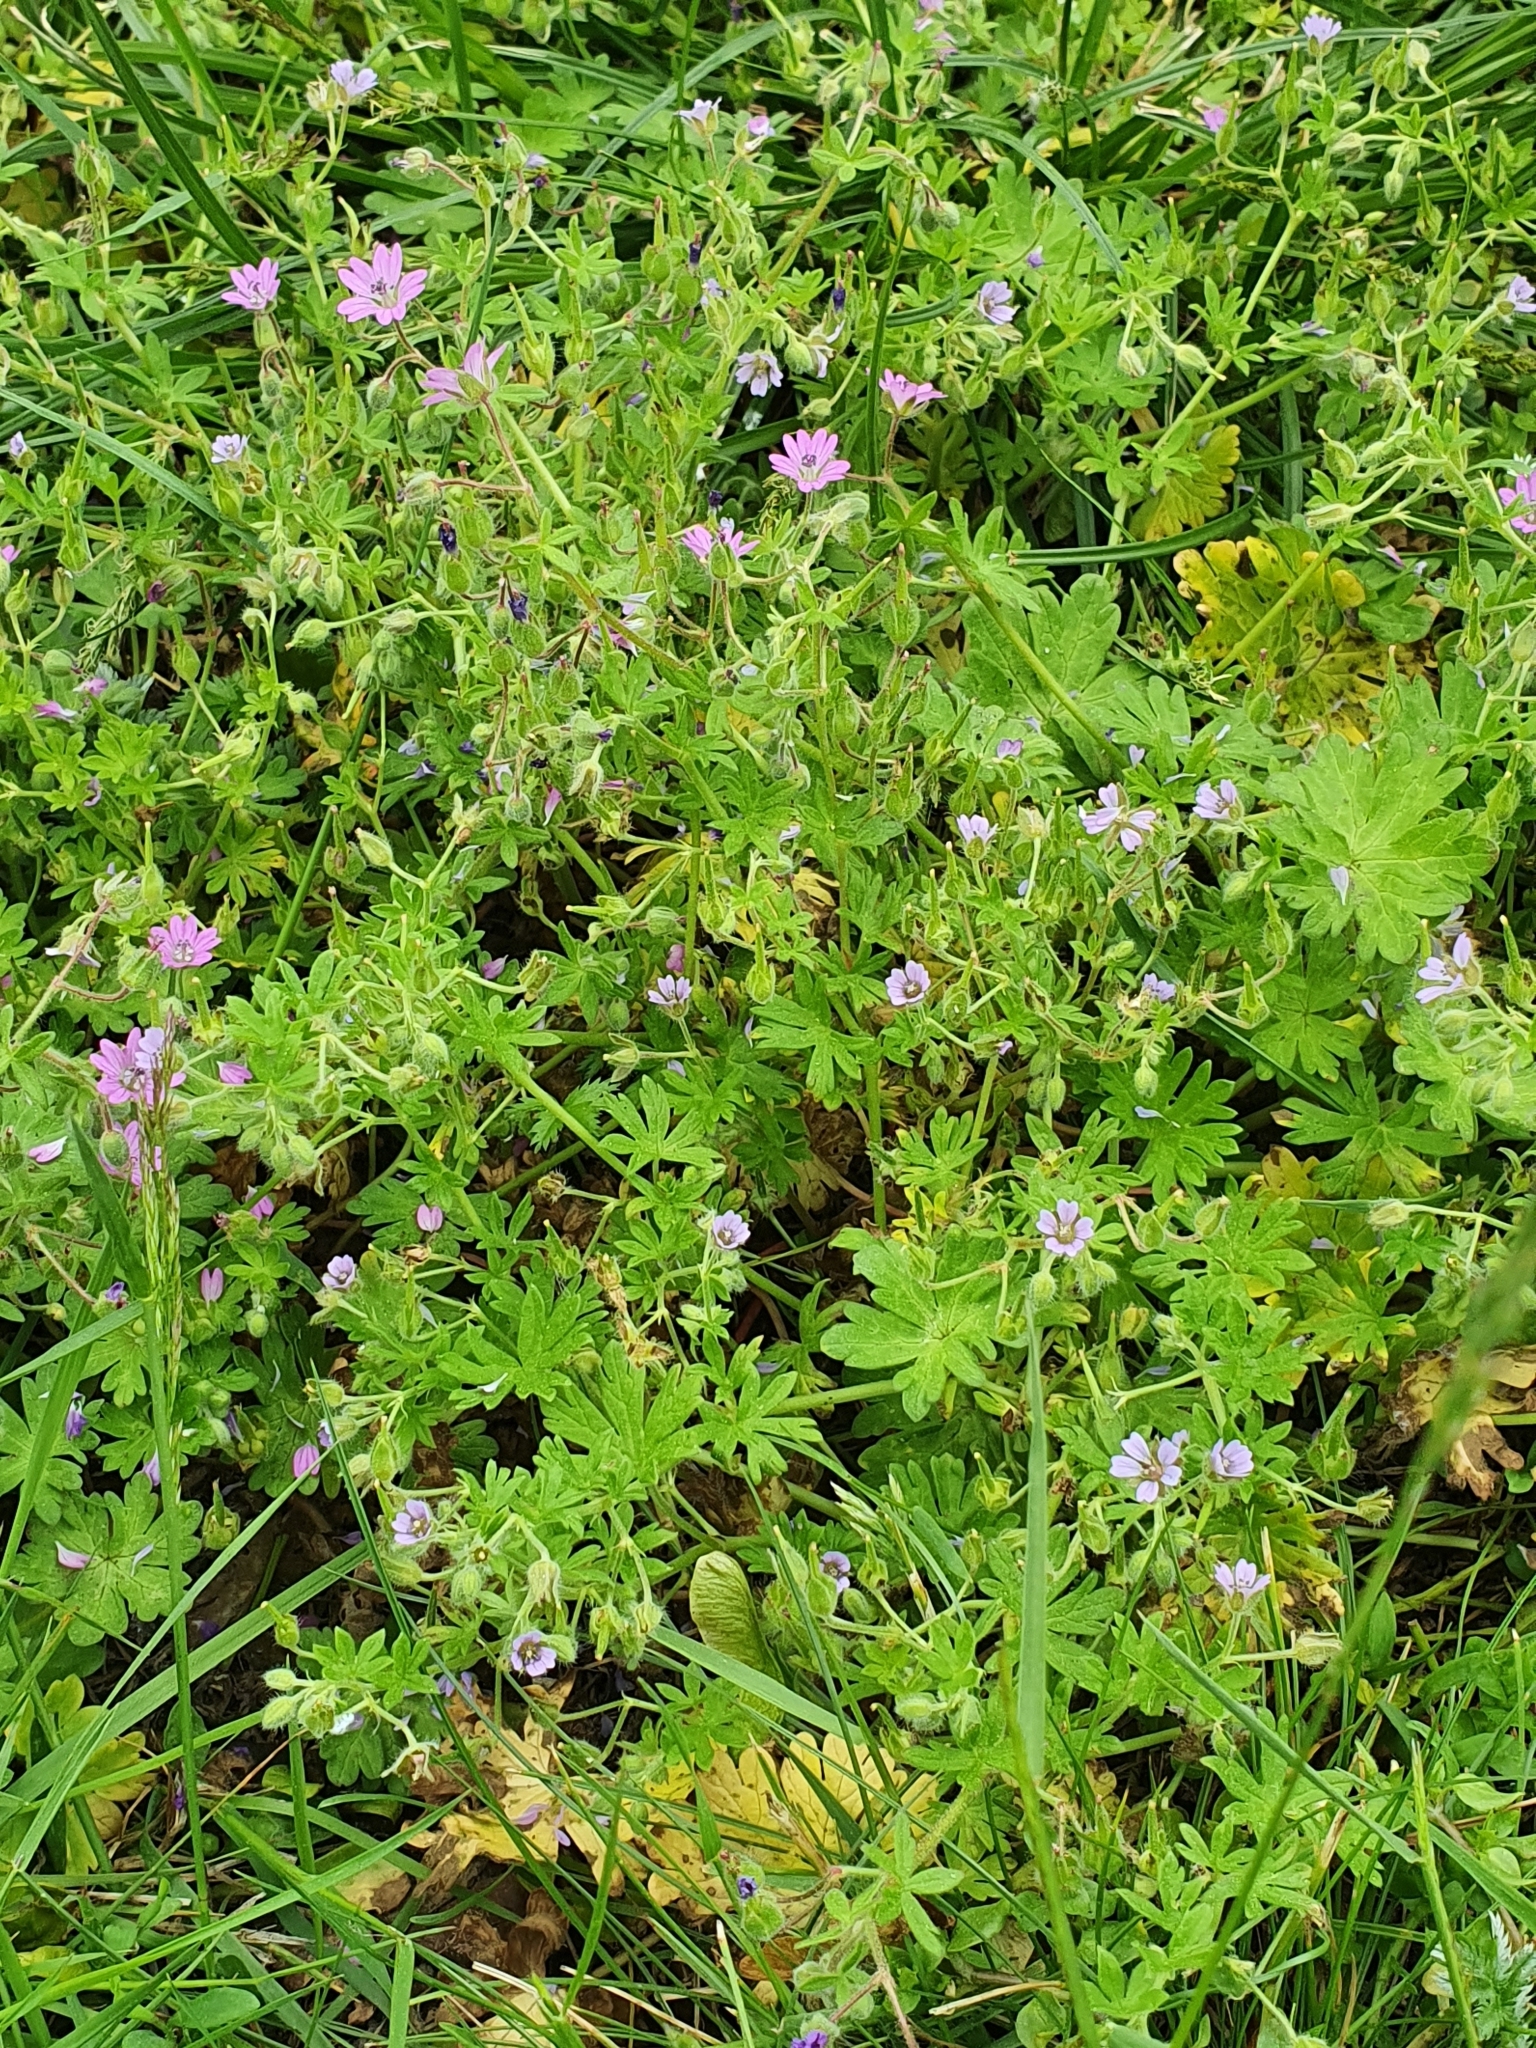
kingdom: Plantae
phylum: Tracheophyta
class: Magnoliopsida
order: Geraniales
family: Geraniaceae
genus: Geranium
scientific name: Geranium pusillum
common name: Small geranium
